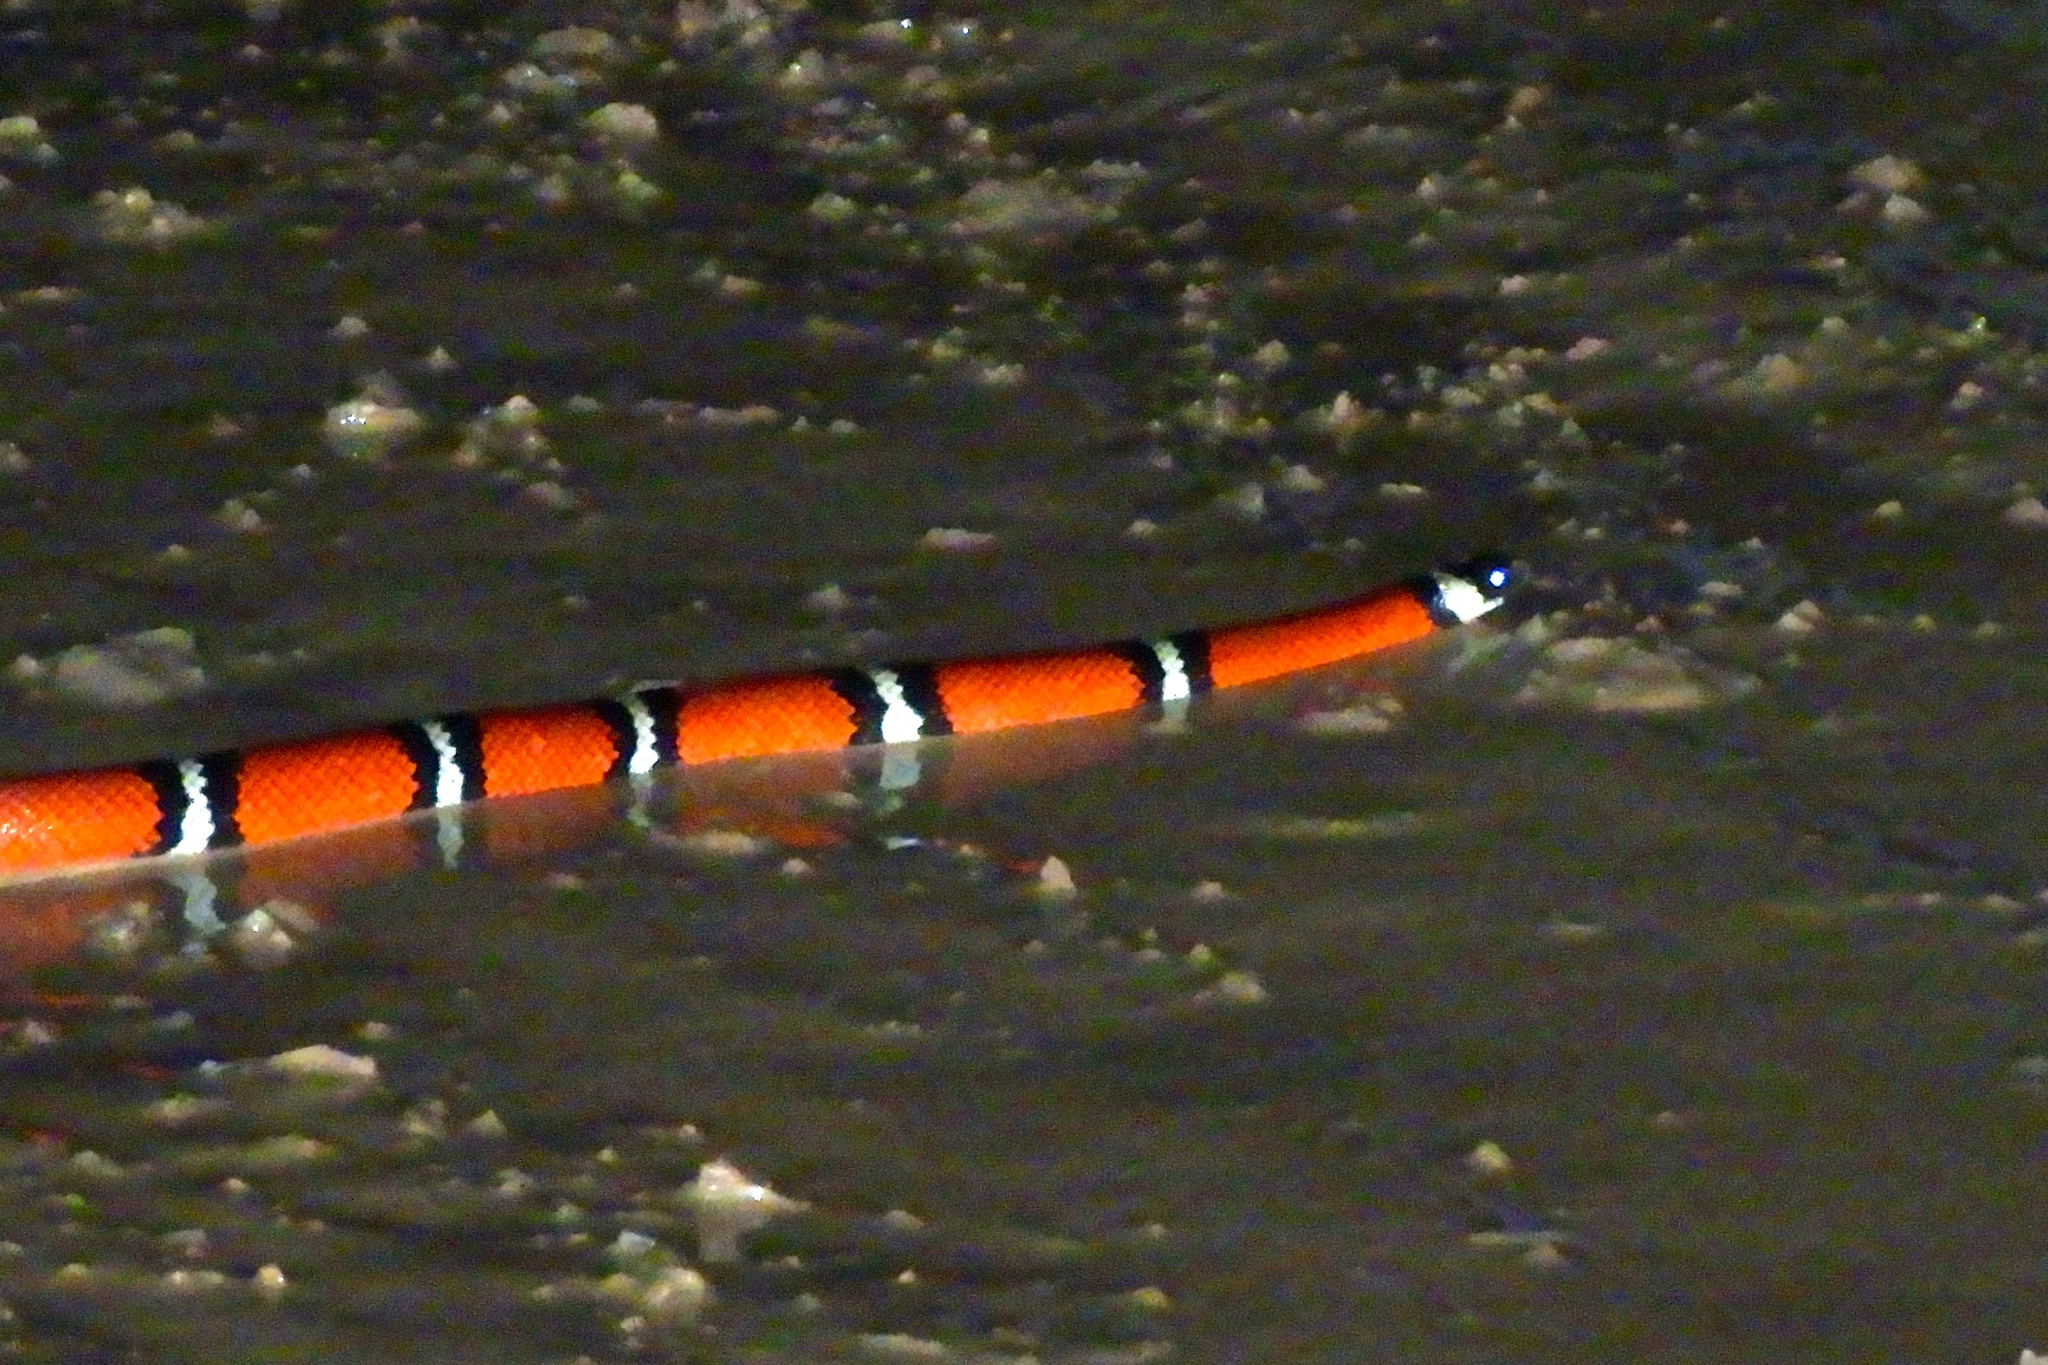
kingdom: Animalia
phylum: Chordata
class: Squamata
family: Colubridae
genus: Lampropeltis
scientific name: Lampropeltis polyzona
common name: Atlantic central american milksnake
